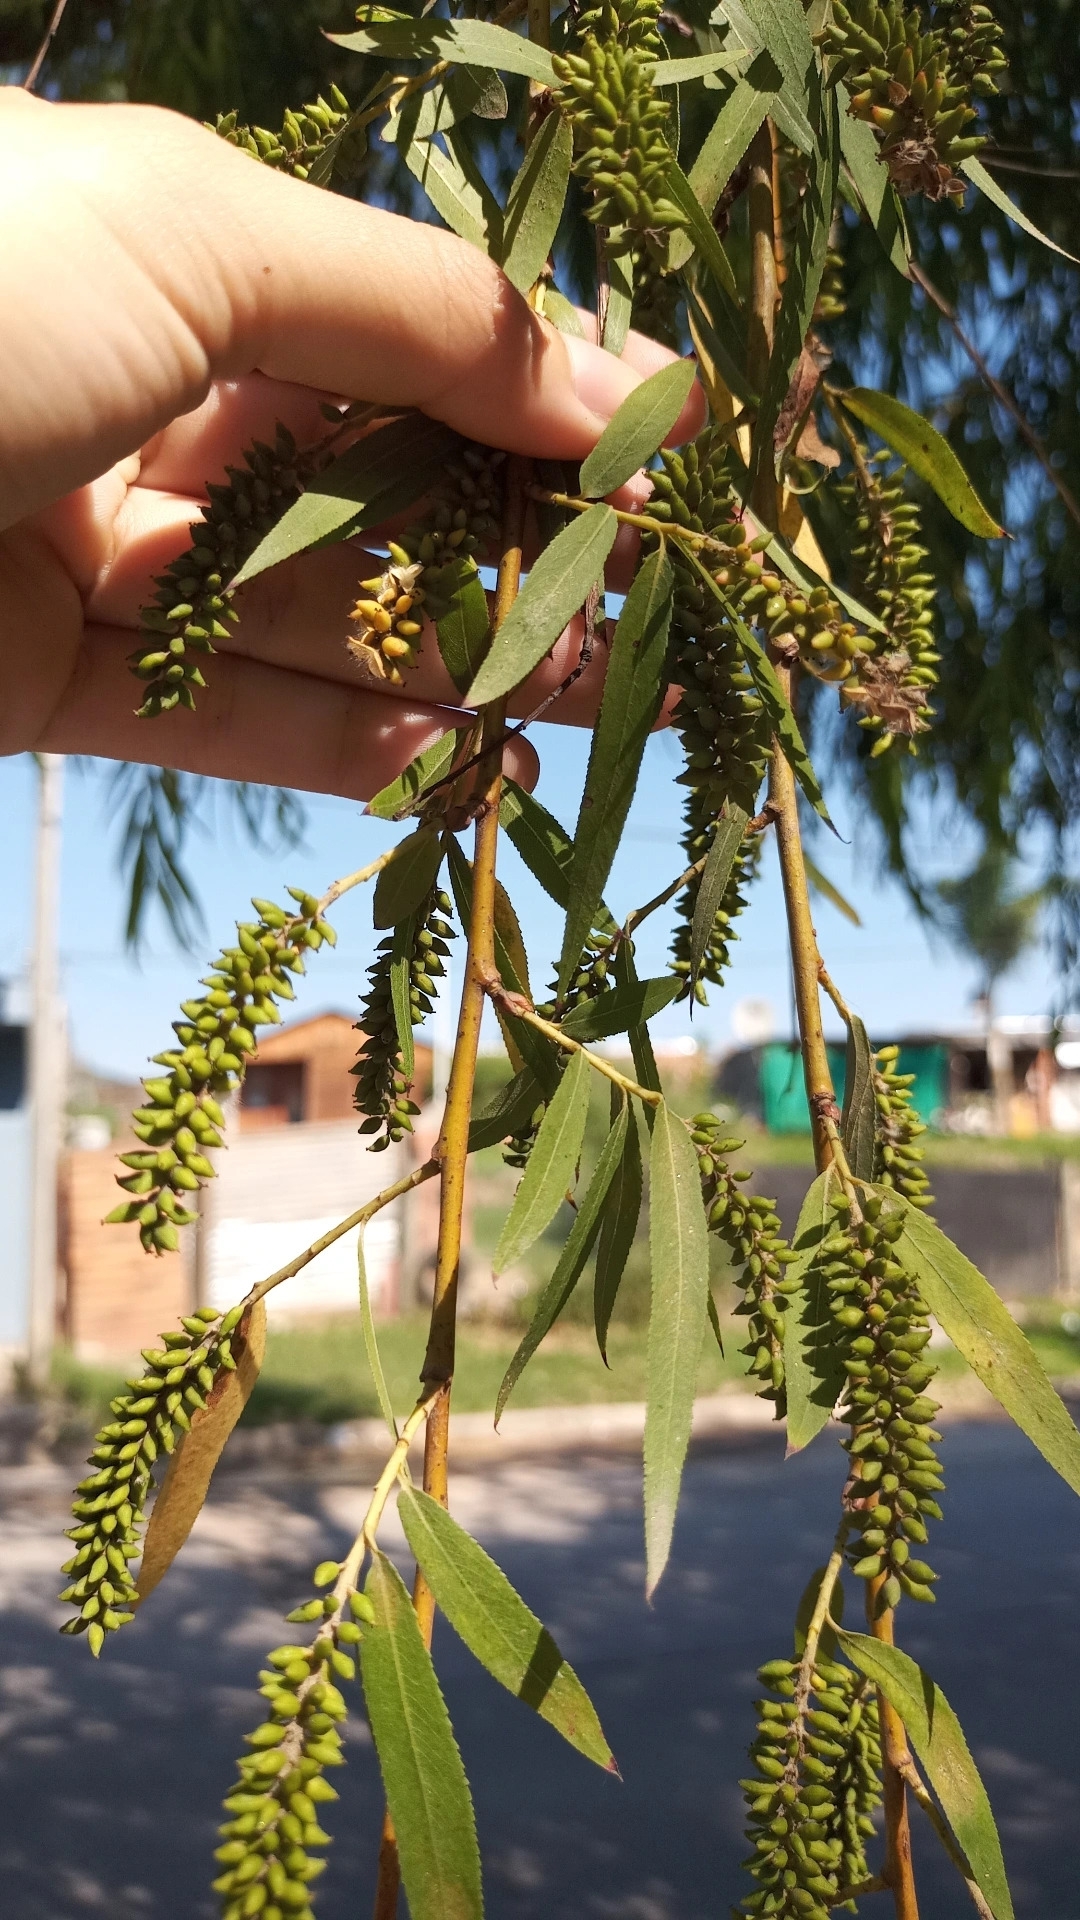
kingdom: Plantae
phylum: Tracheophyta
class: Magnoliopsida
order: Malpighiales
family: Salicaceae
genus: Salix
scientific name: Salix humboldtiana
